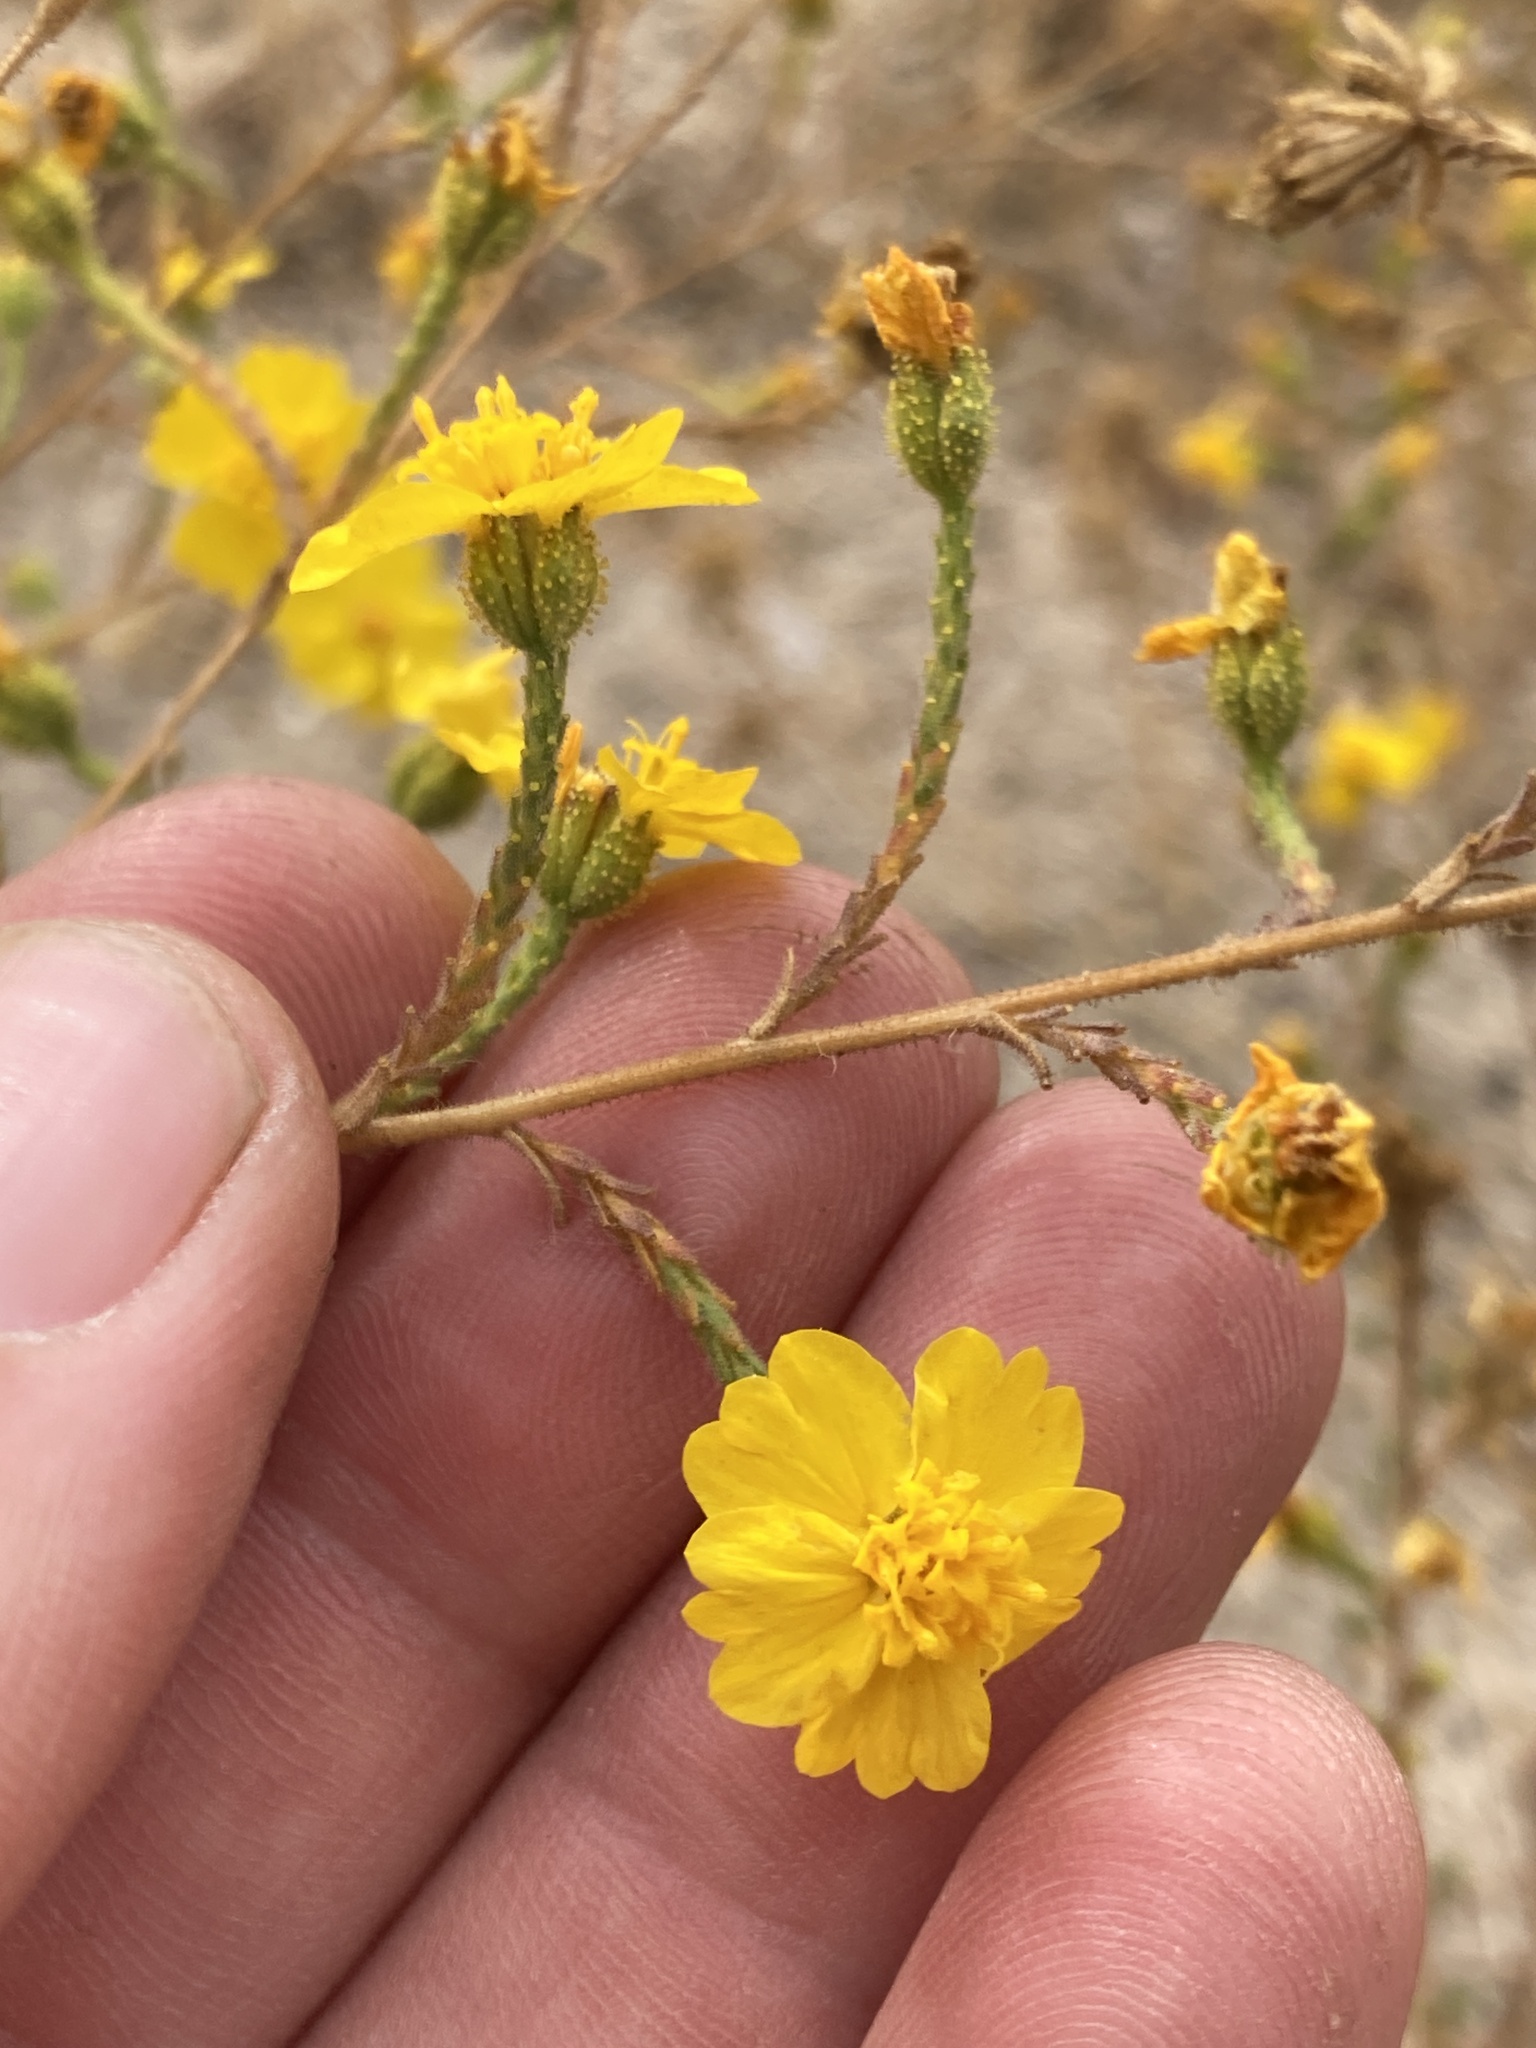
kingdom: Plantae
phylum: Tracheophyta
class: Magnoliopsida
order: Asterales
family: Asteraceae
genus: Holocarpha
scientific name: Holocarpha heermannii
